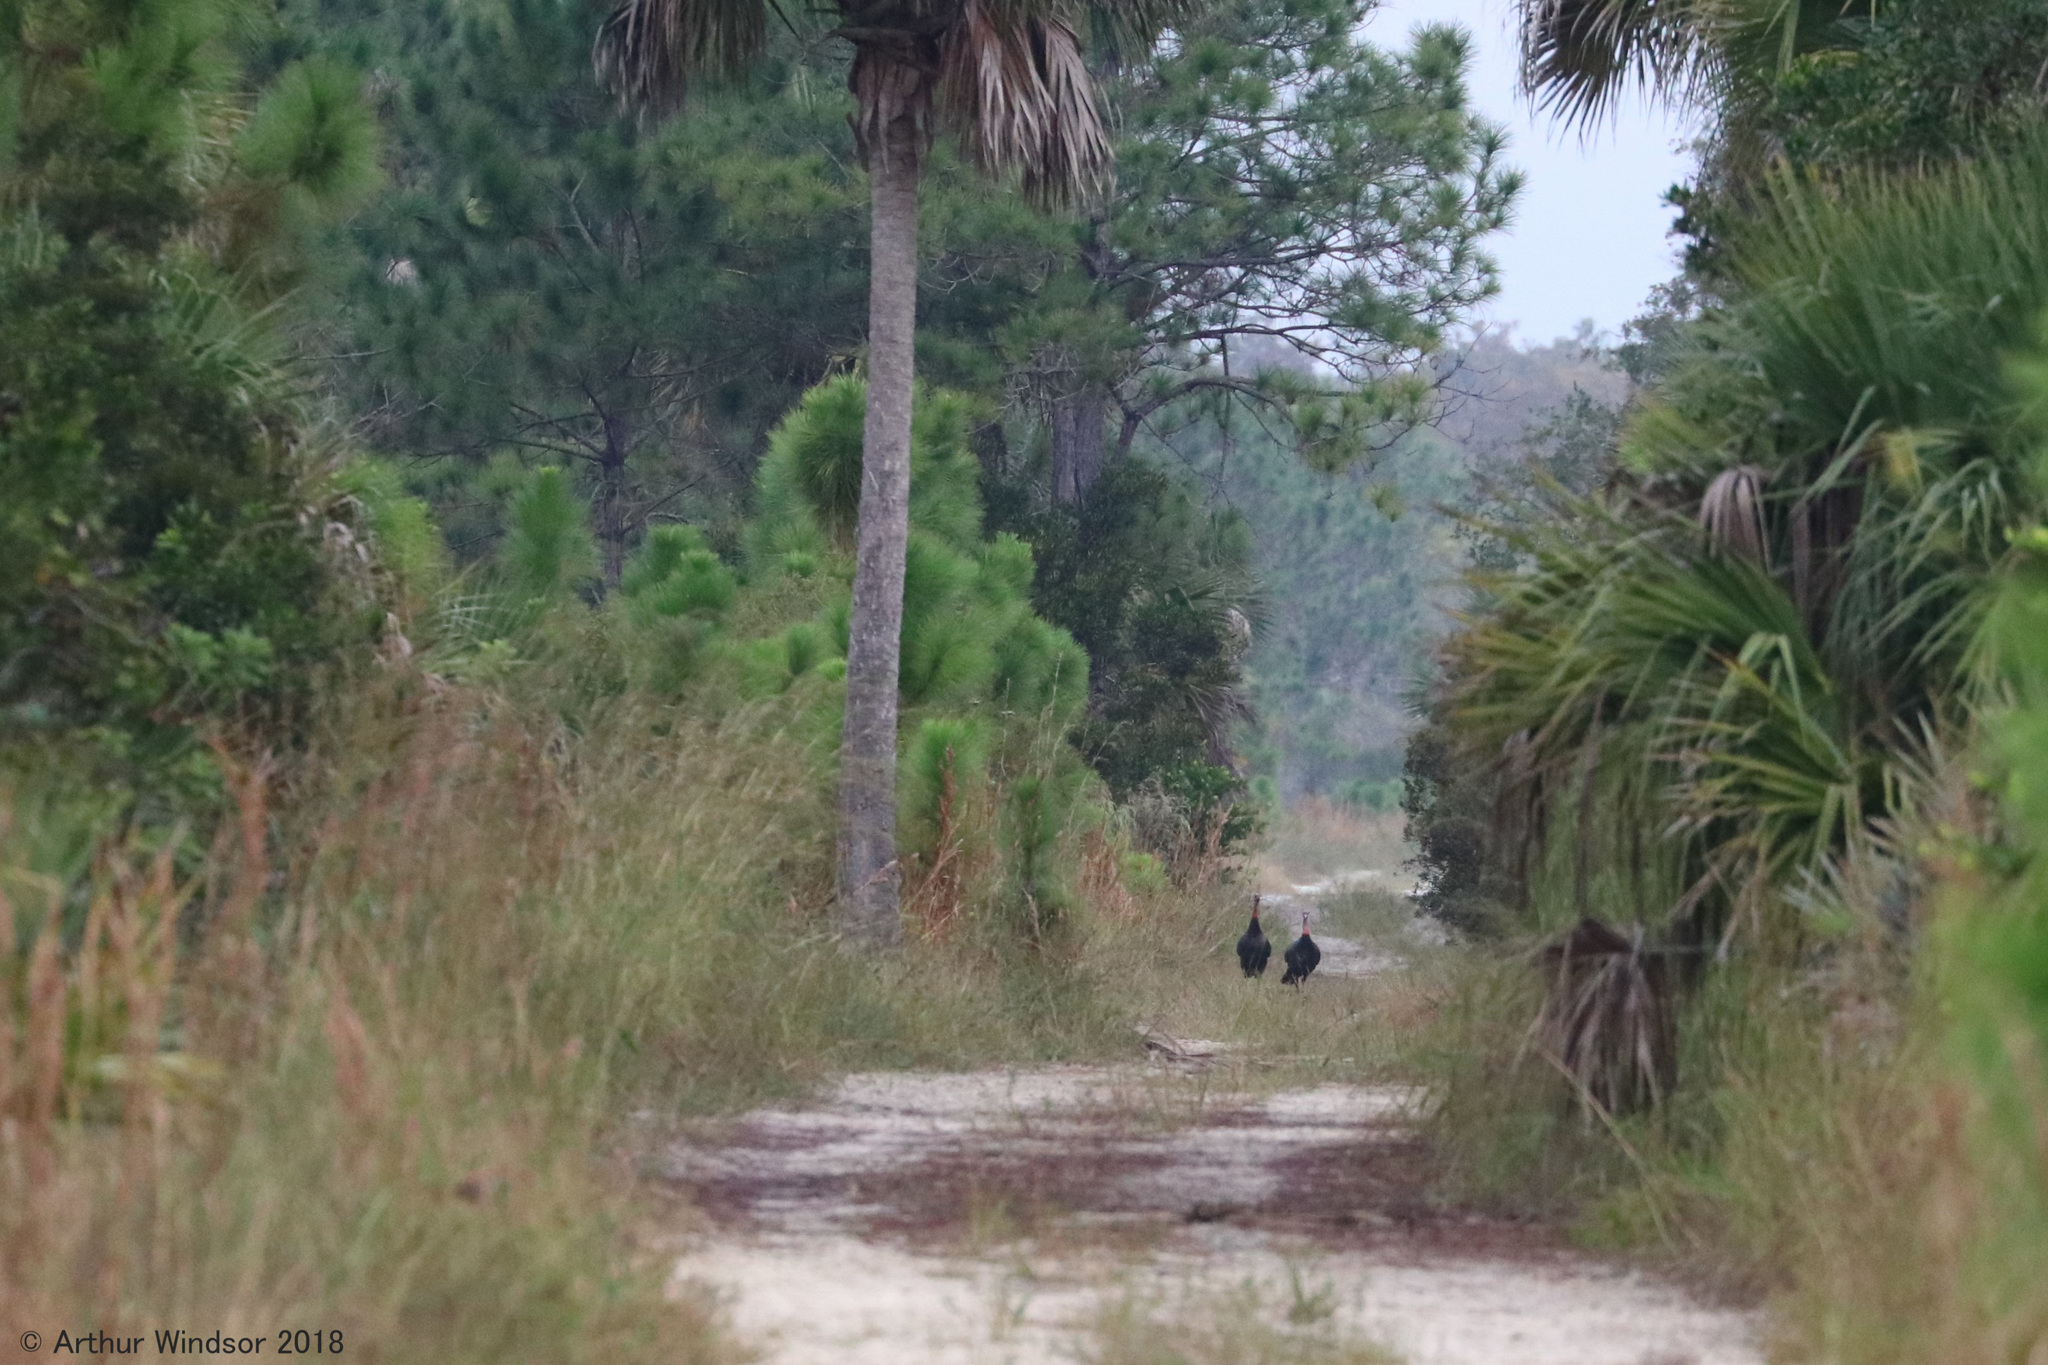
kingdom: Animalia
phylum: Chordata
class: Aves
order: Galliformes
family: Phasianidae
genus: Meleagris
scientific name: Meleagris gallopavo
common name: Wild turkey
